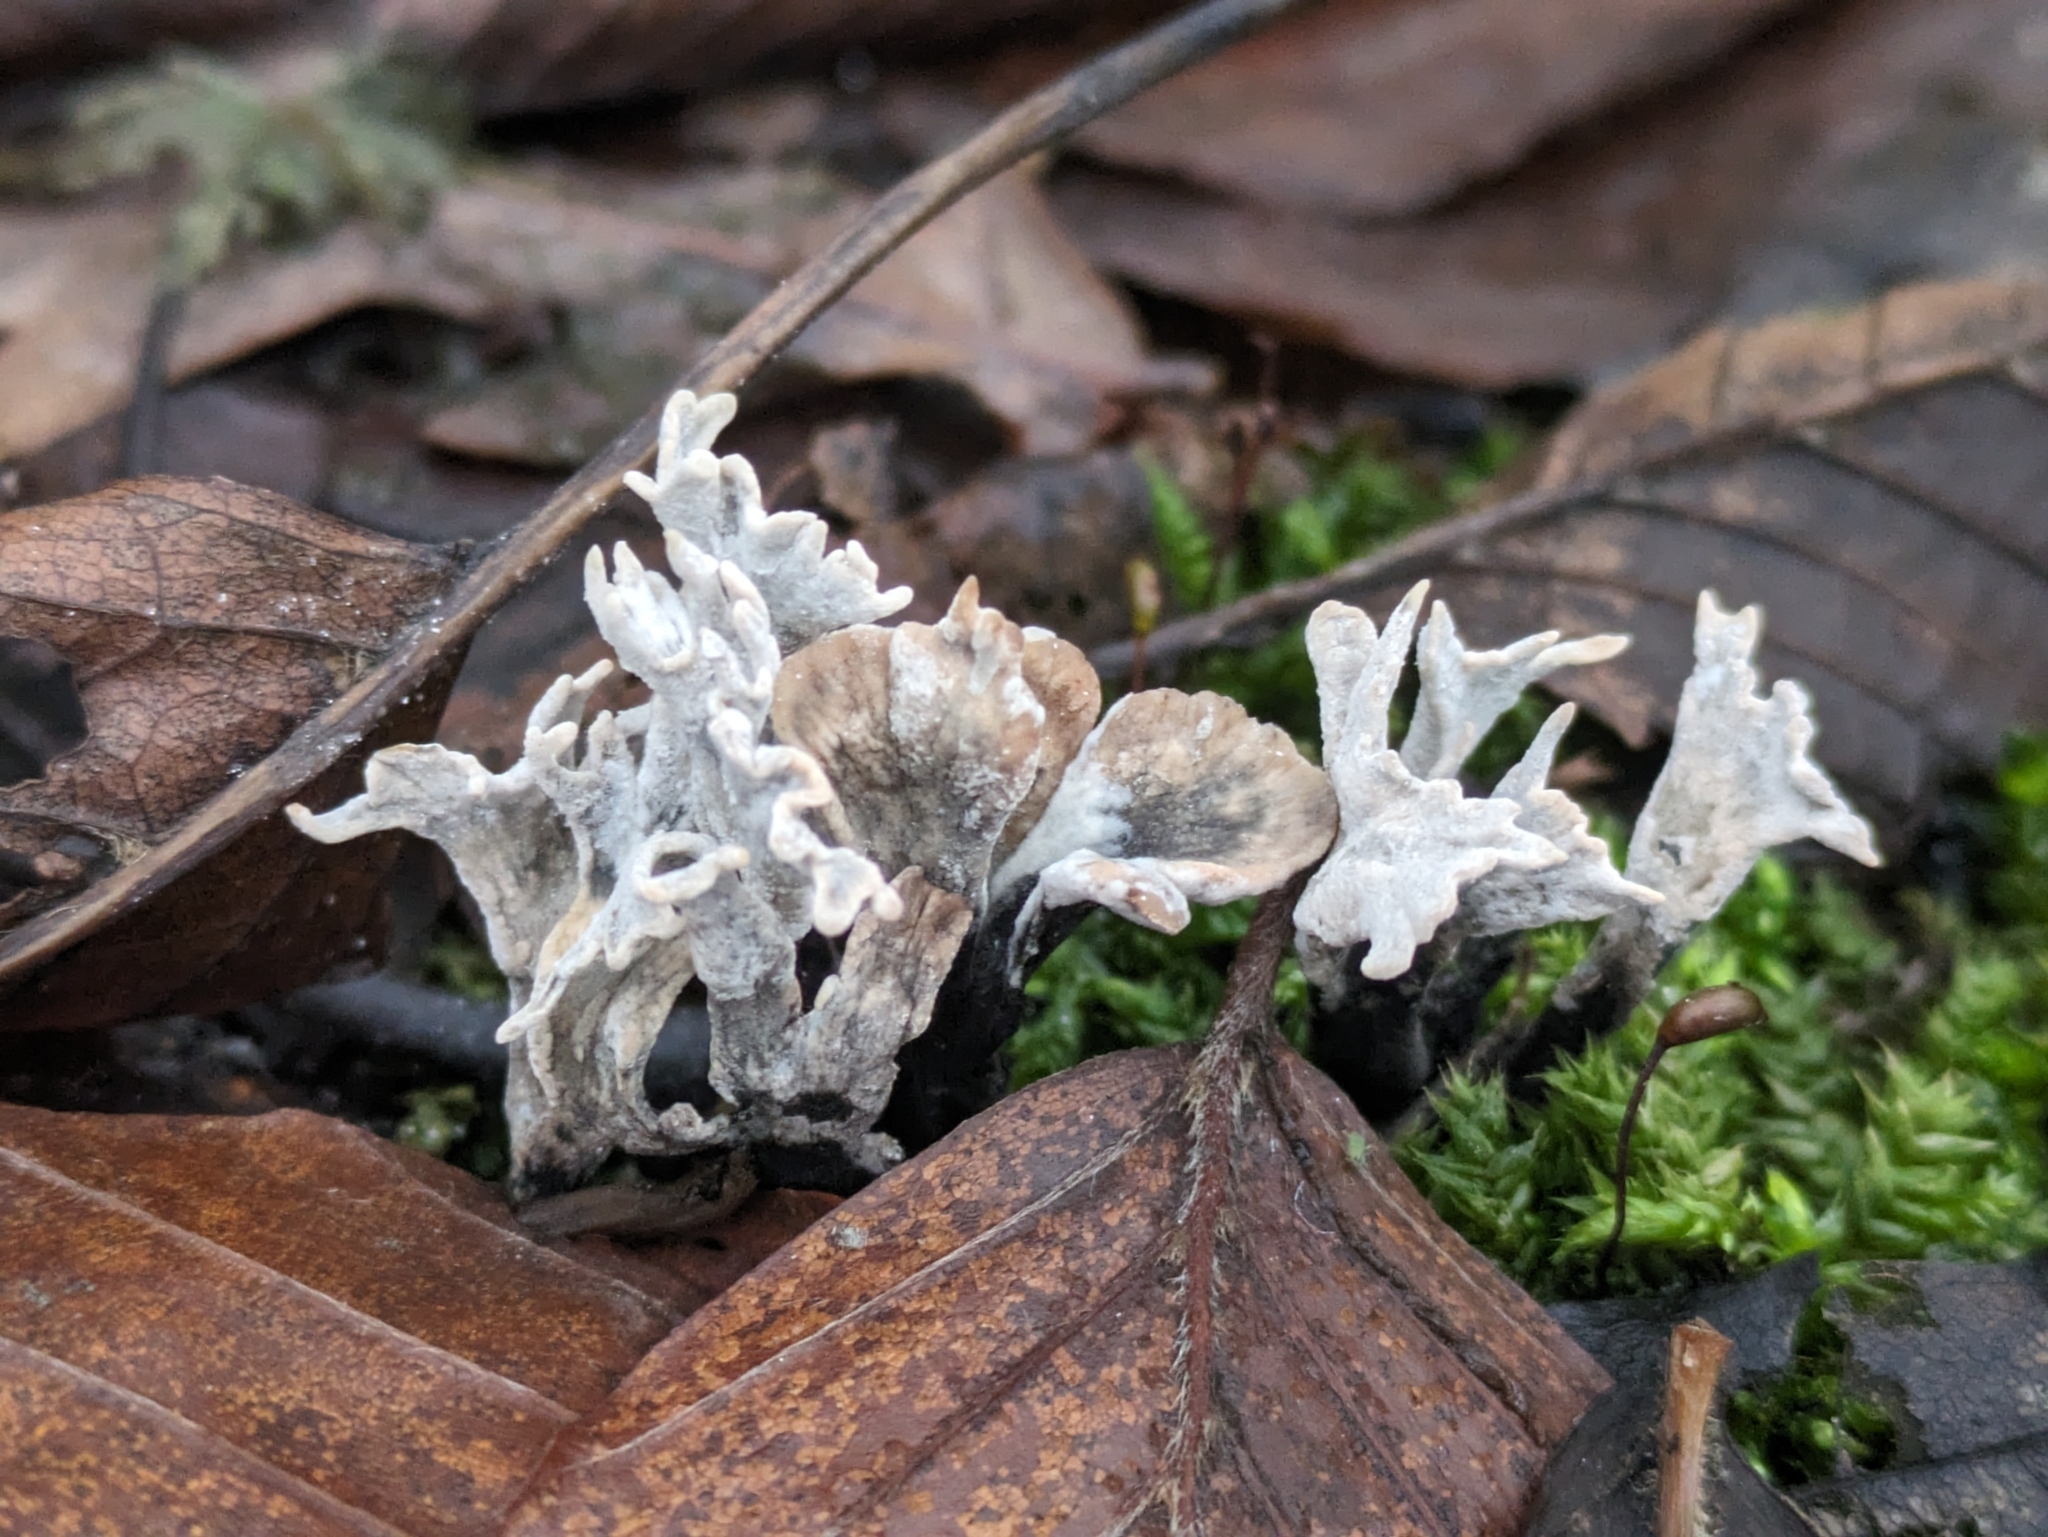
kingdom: Fungi
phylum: Ascomycota
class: Sordariomycetes
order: Xylariales
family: Xylariaceae
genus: Xylaria
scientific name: Xylaria hypoxylon
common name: Candle-snuff fungus
